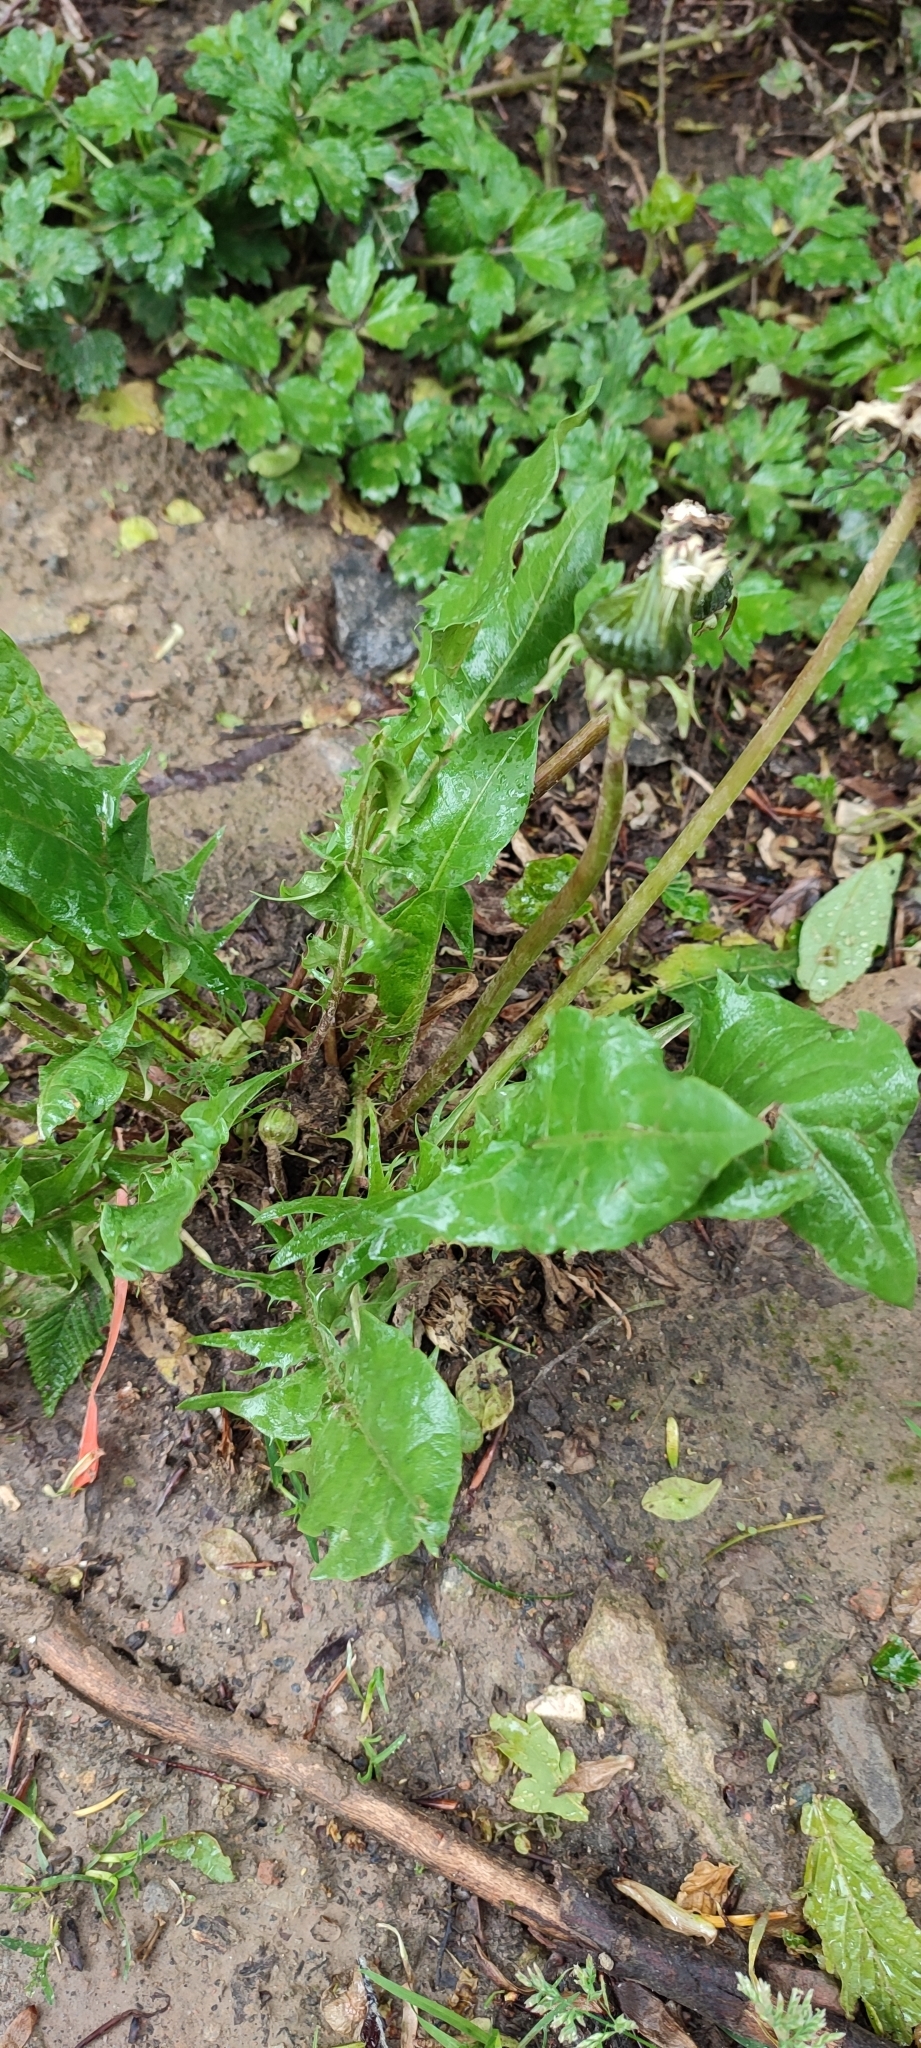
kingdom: Plantae
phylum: Tracheophyta
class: Magnoliopsida
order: Asterales
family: Asteraceae
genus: Taraxacum
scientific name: Taraxacum officinale
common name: Common dandelion
